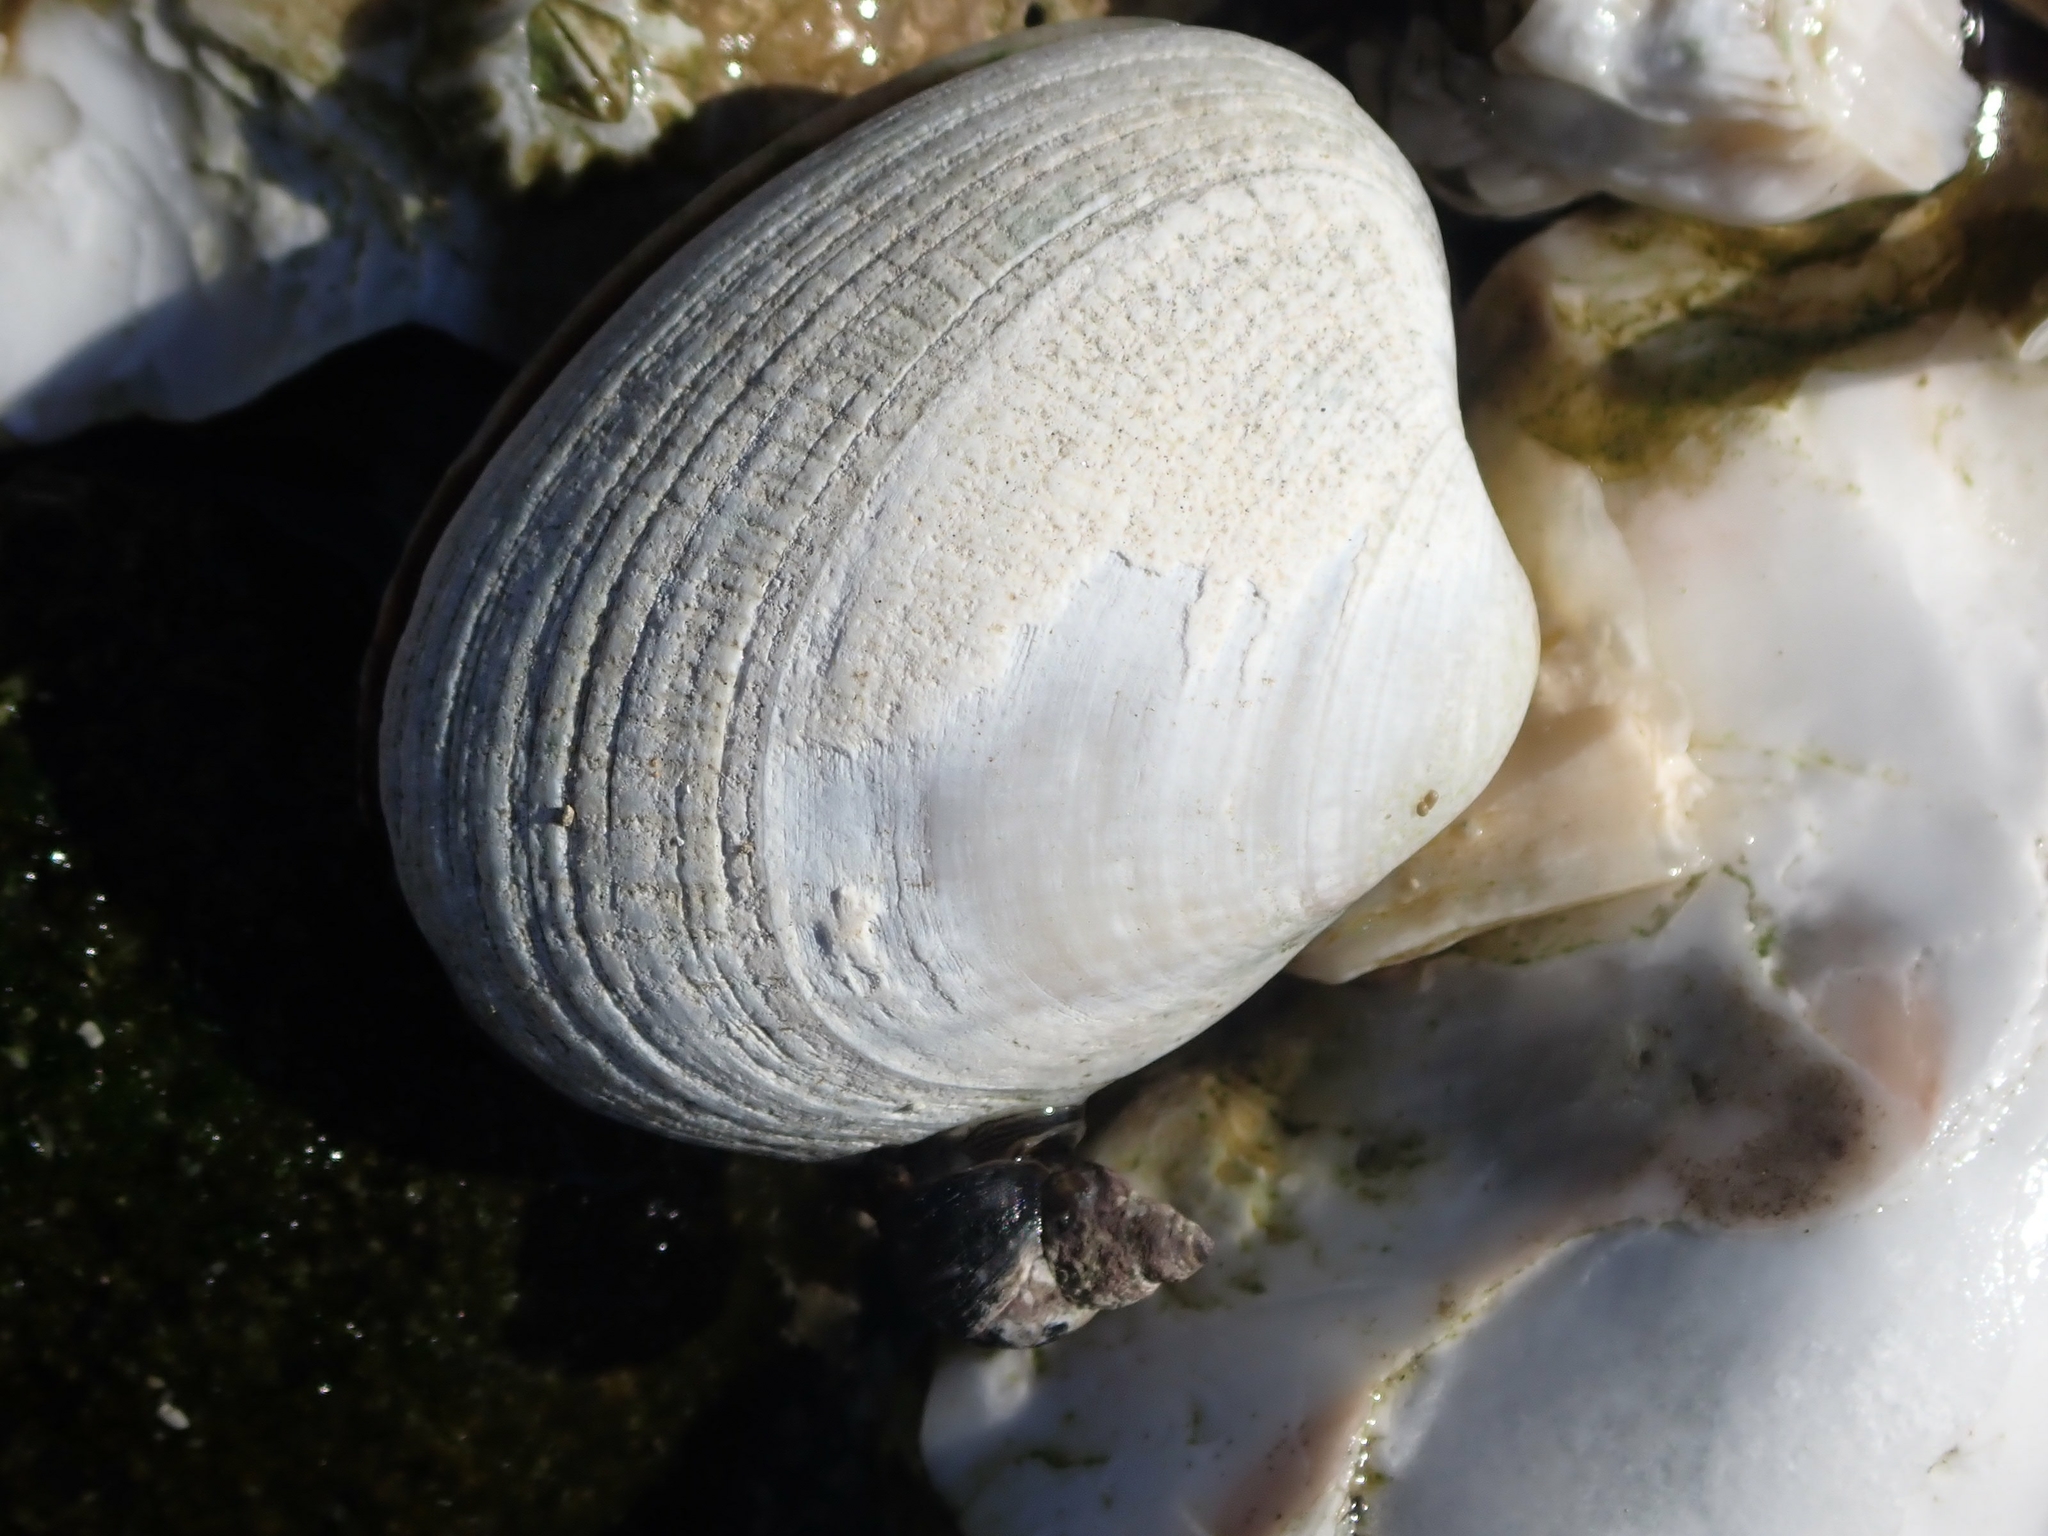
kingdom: Animalia
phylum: Mollusca
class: Bivalvia
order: Venerida
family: Veneridae
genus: Ruditapes
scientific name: Ruditapes philippinarum
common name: Manila clam
